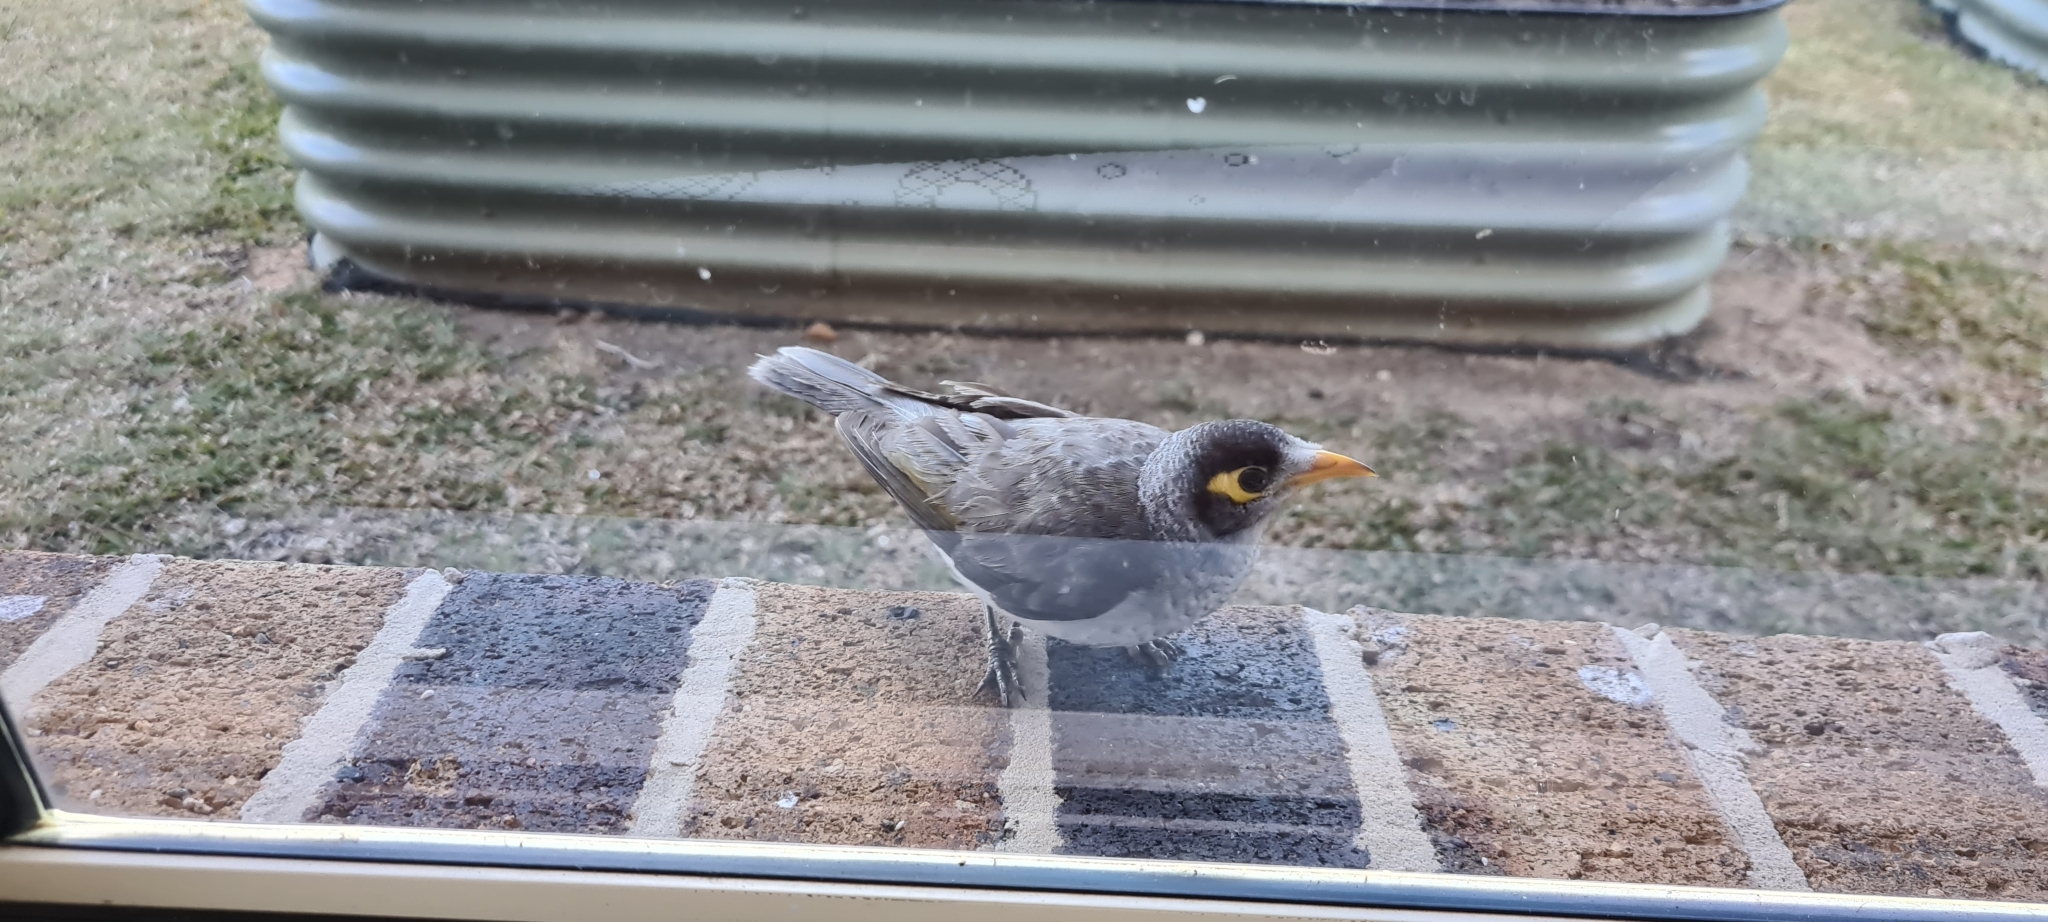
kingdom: Animalia
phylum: Chordata
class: Aves
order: Passeriformes
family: Meliphagidae
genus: Manorina
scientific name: Manorina melanocephala
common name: Noisy miner
